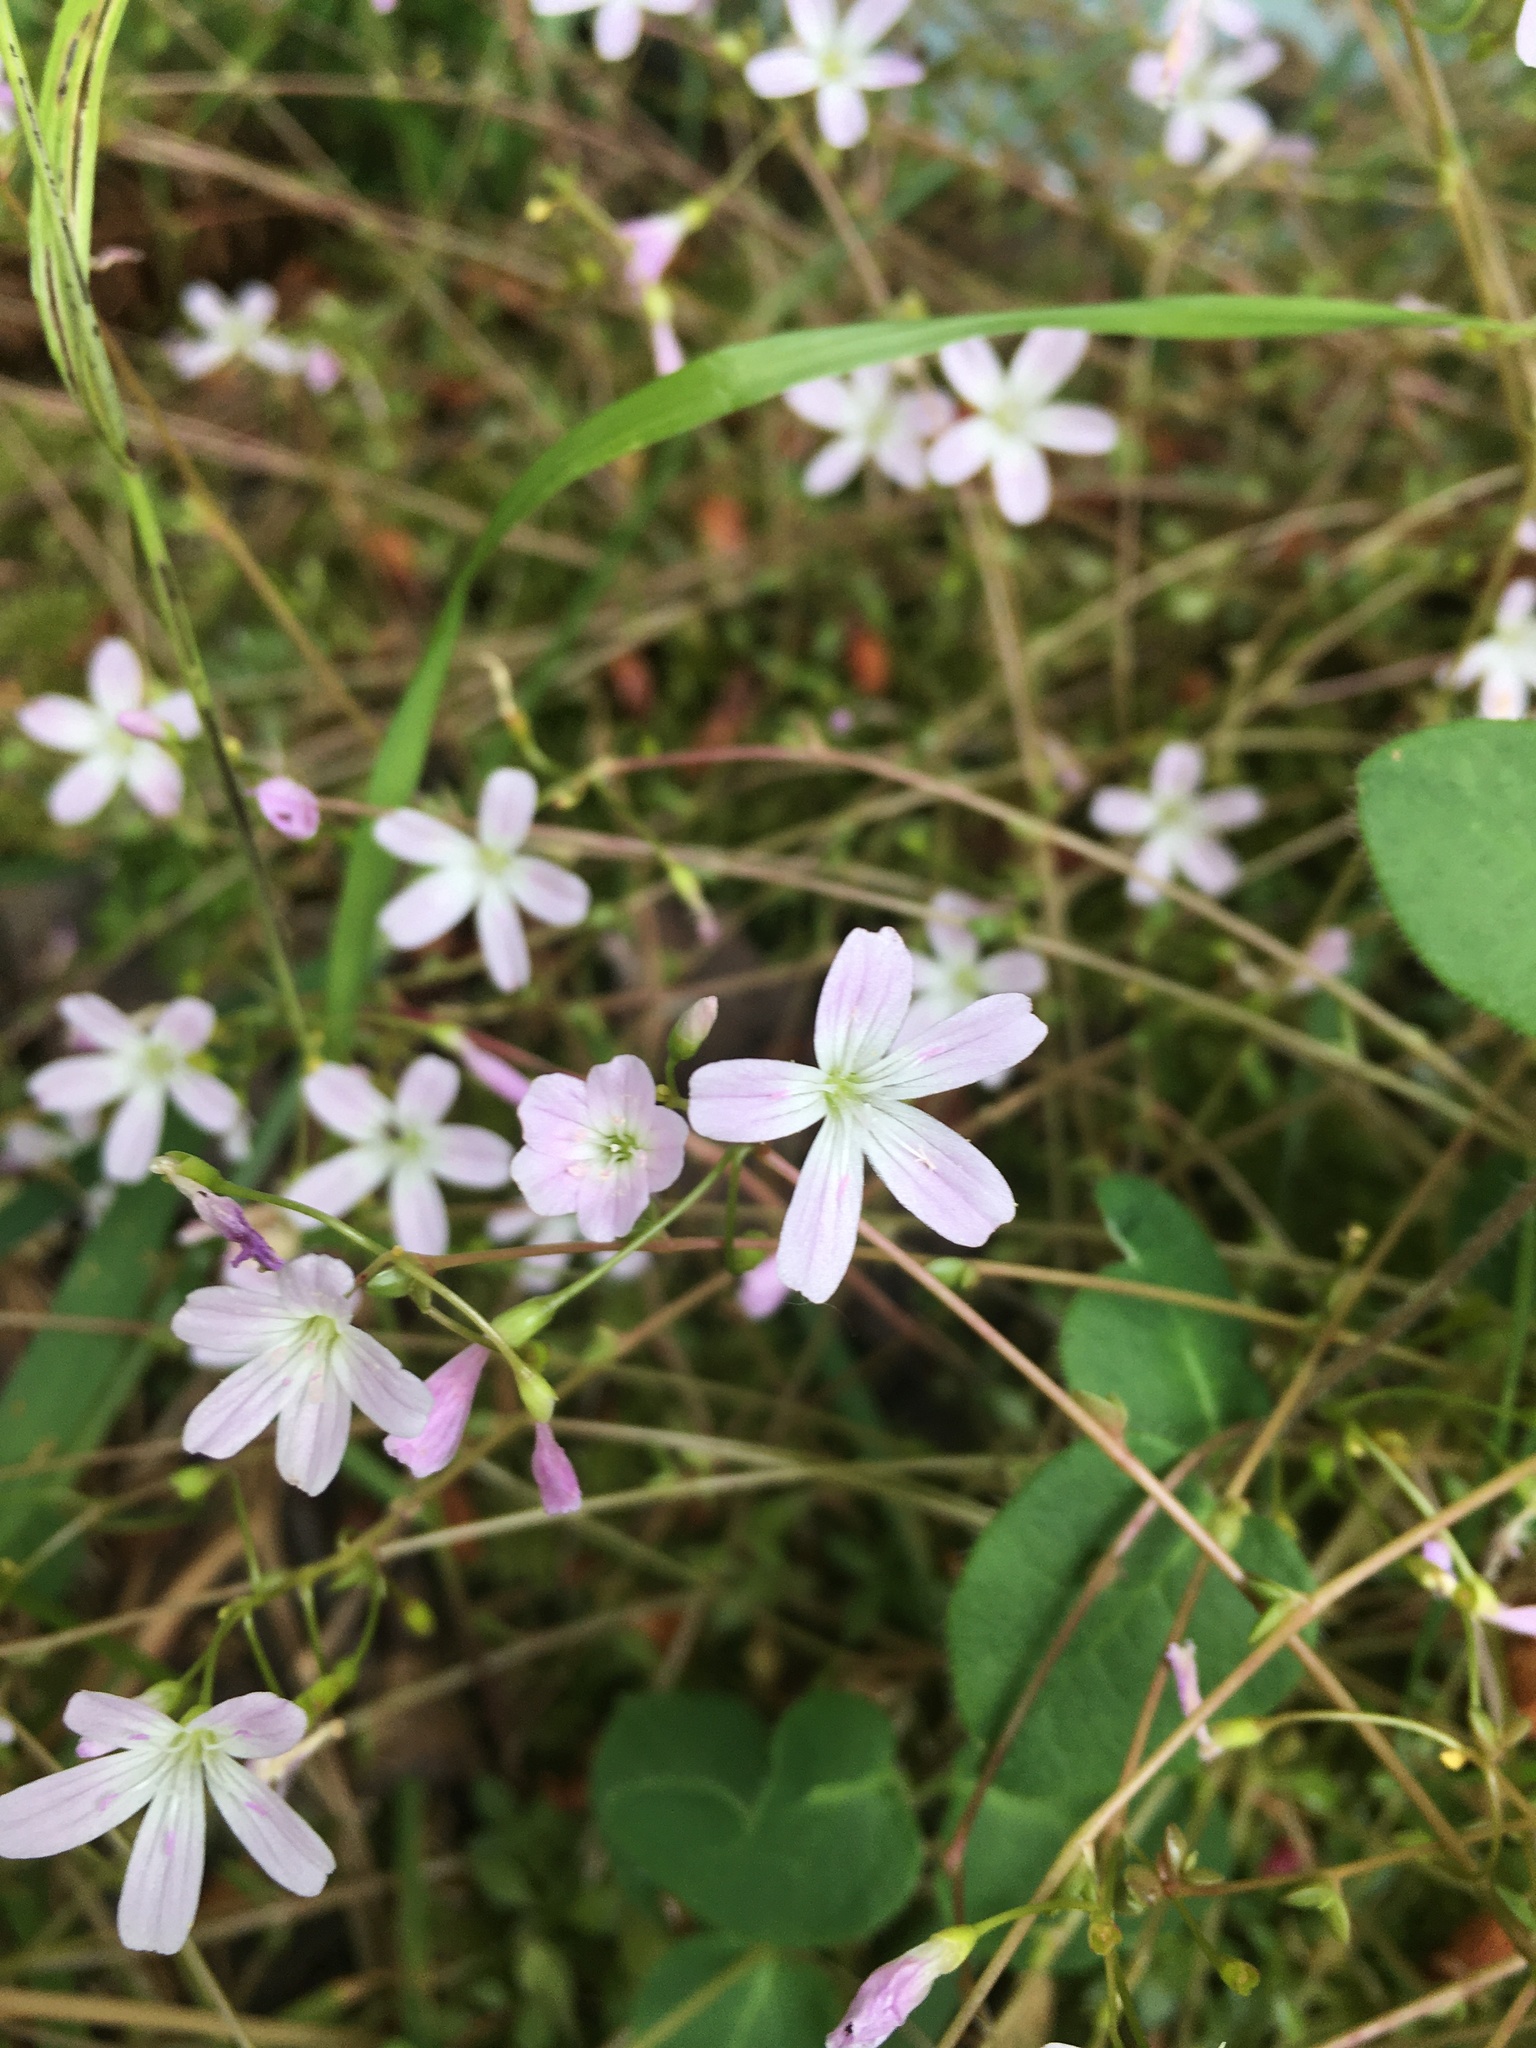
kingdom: Plantae
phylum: Tracheophyta
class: Magnoliopsida
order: Caryophyllales
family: Montiaceae
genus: Montia
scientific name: Montia parvifolia
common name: Small-leaved blinks
